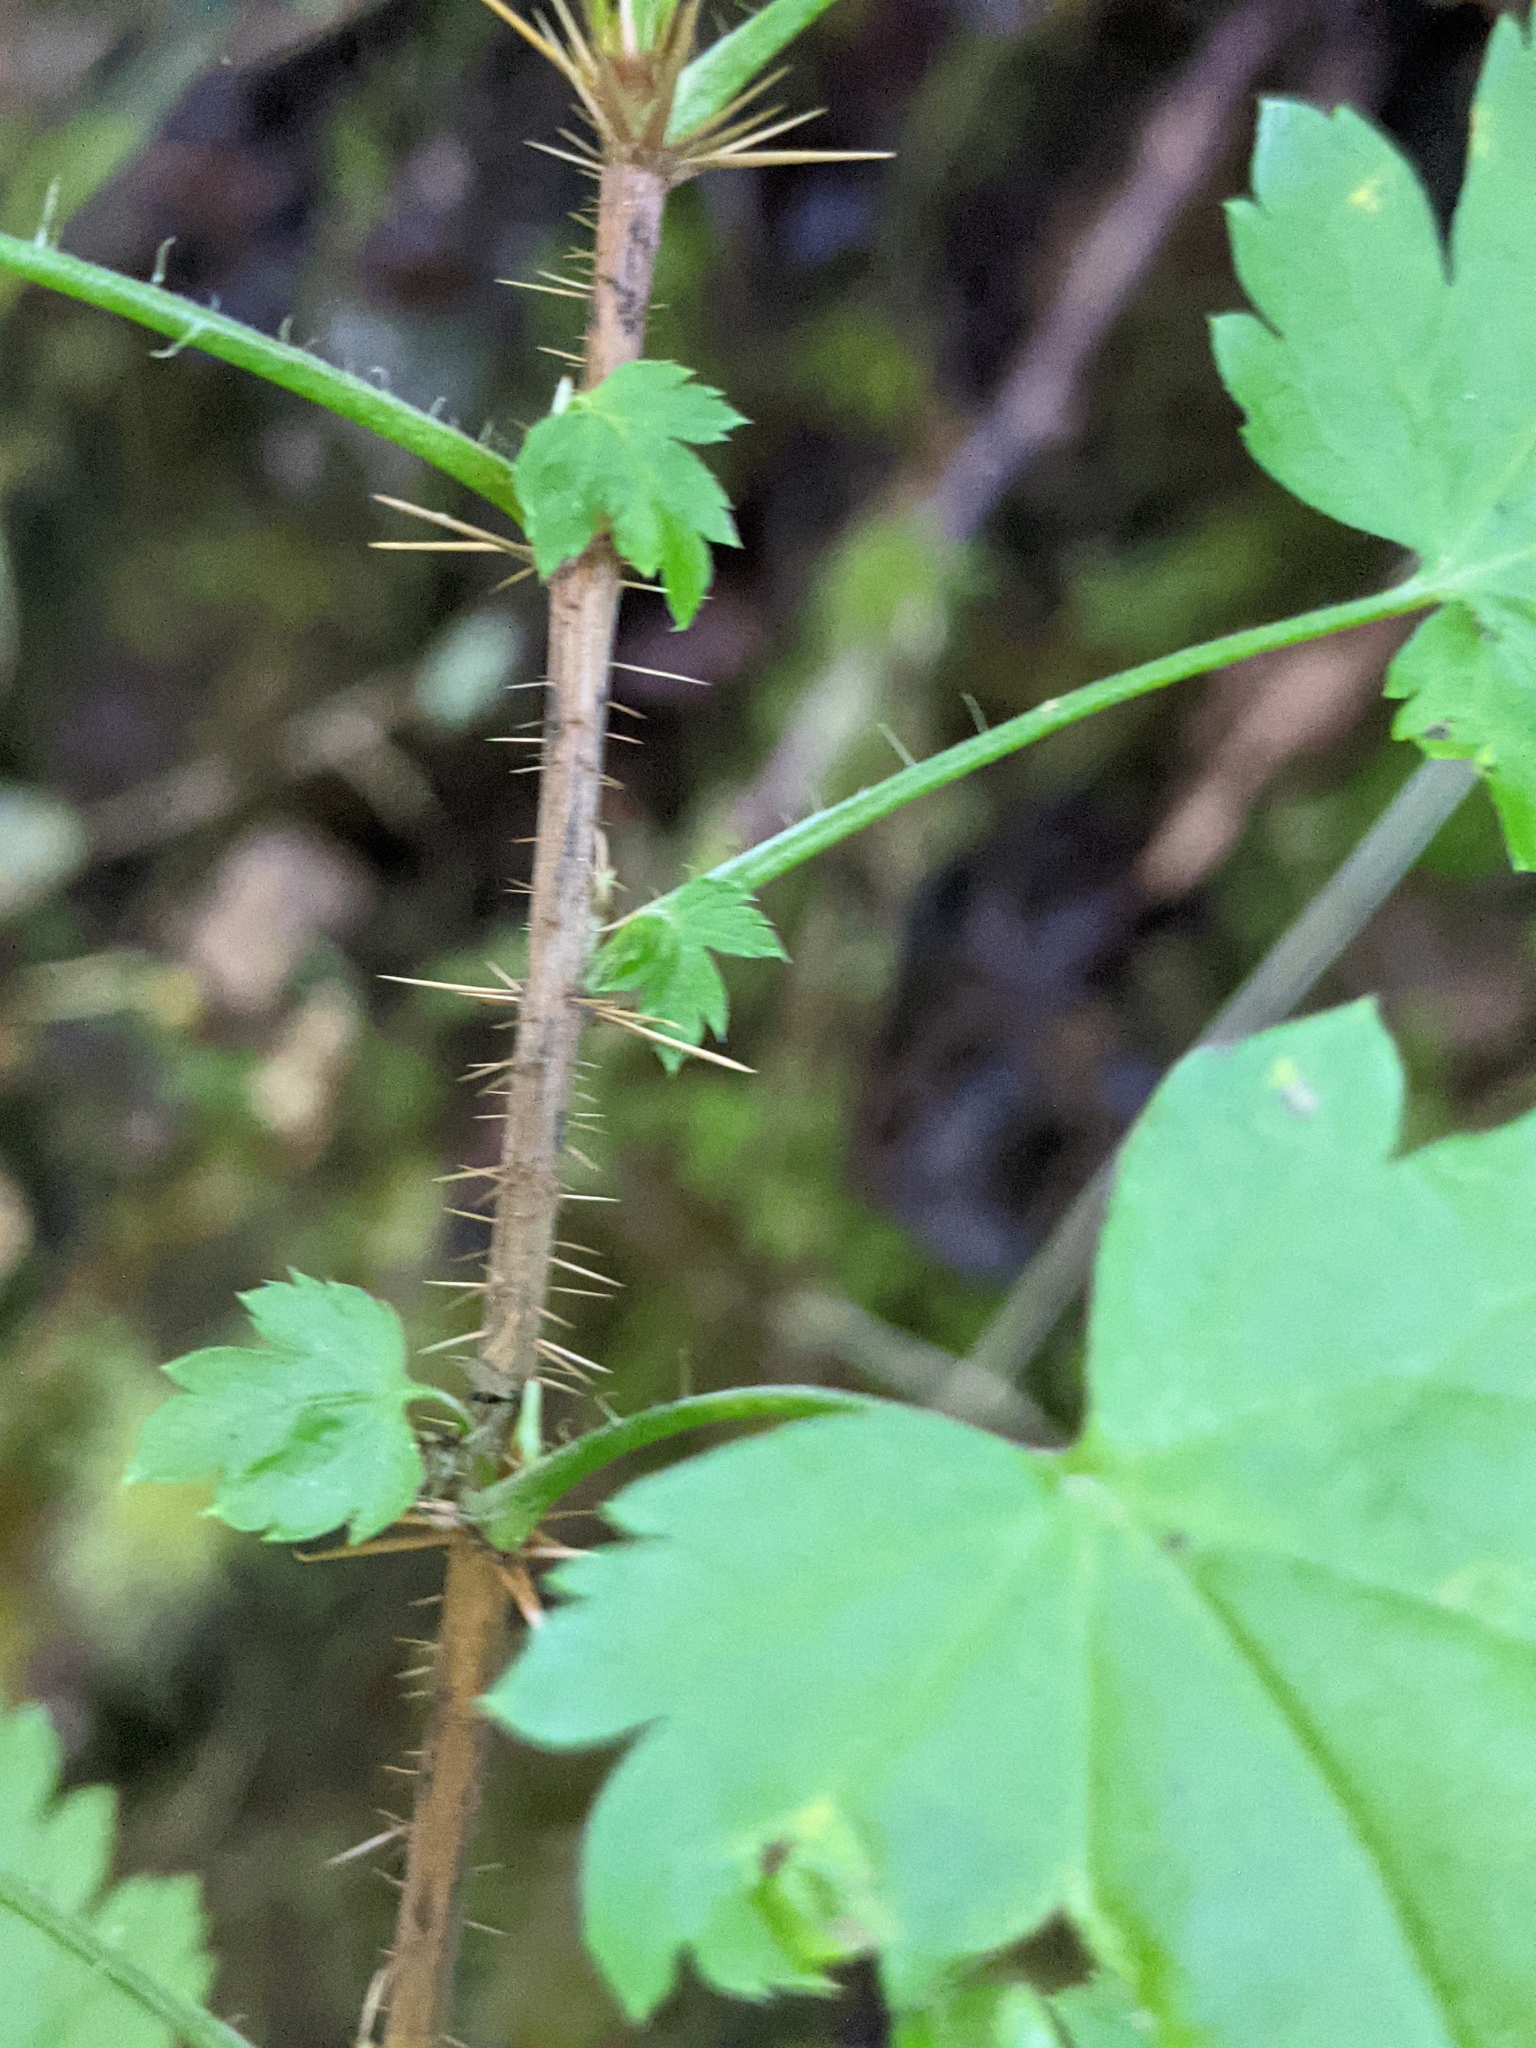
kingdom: Plantae
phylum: Tracheophyta
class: Magnoliopsida
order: Saxifragales
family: Grossulariaceae
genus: Ribes
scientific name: Ribes lacustre
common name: Black gooseberry
